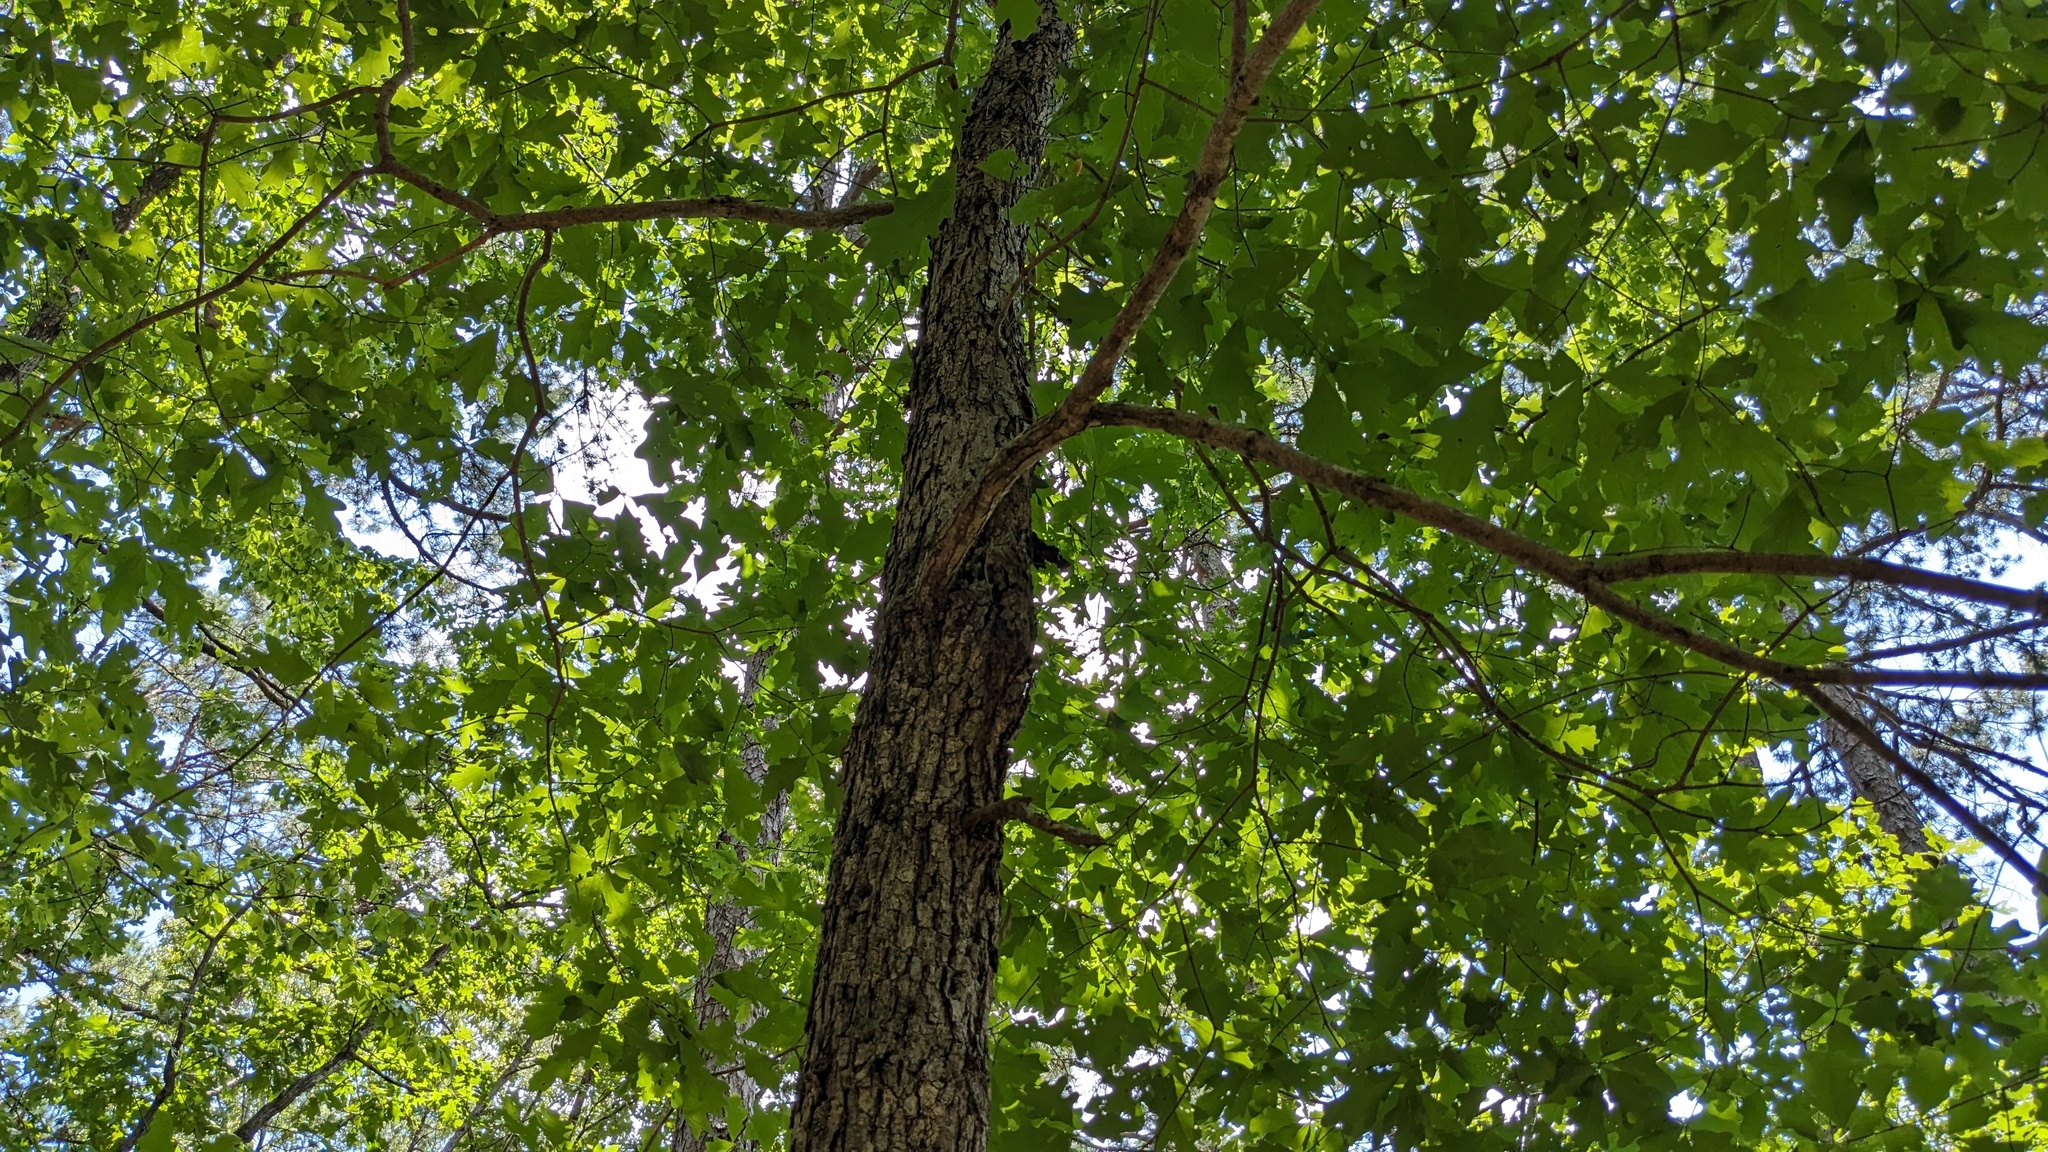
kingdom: Plantae
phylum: Tracheophyta
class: Magnoliopsida
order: Fagales
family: Fagaceae
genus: Quercus
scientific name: Quercus alba
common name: White oak
